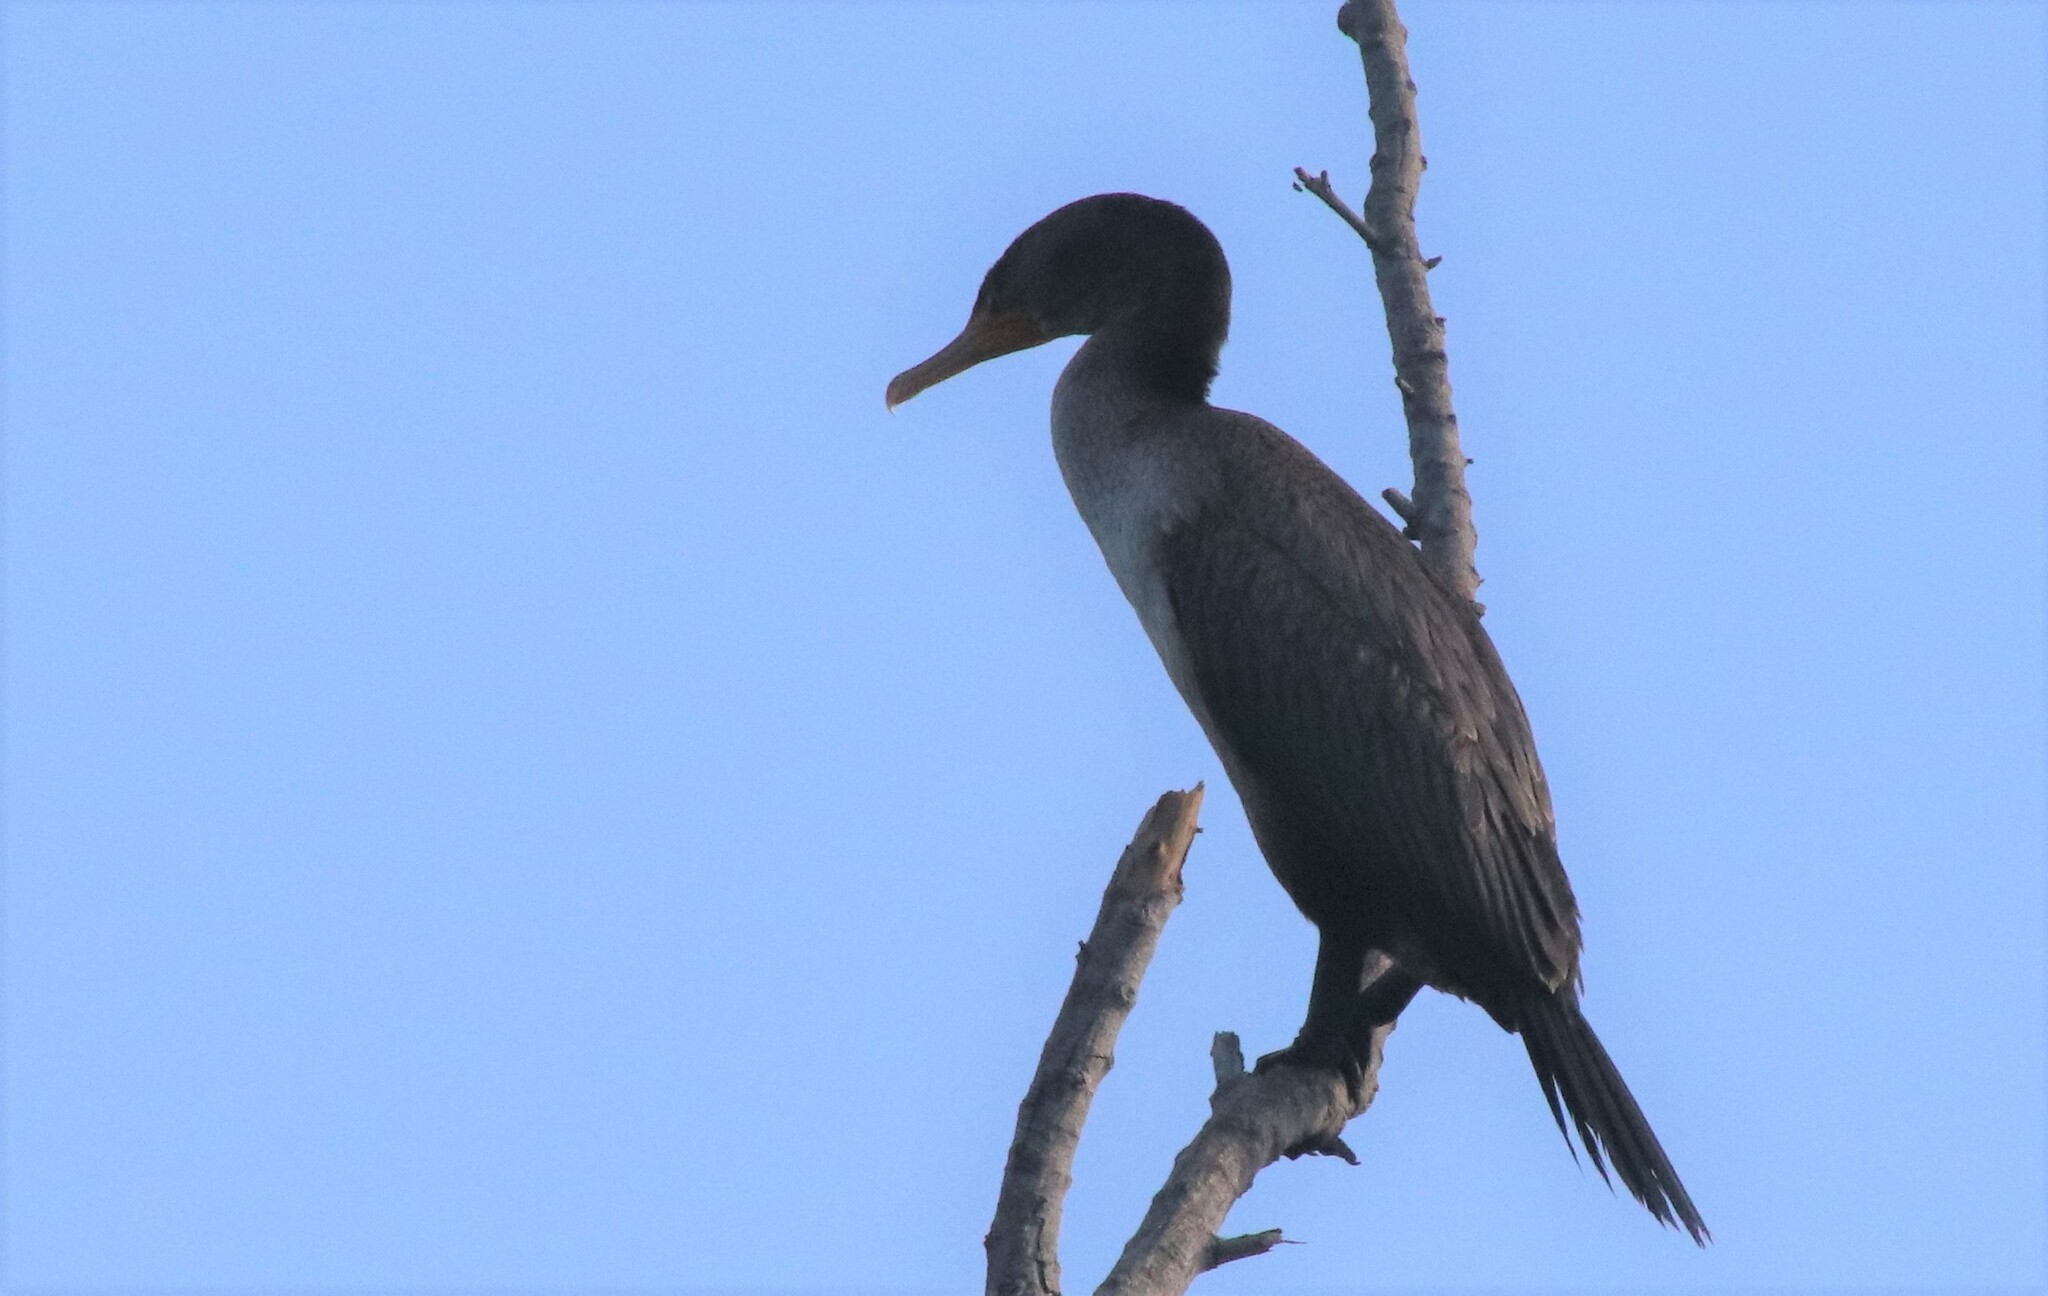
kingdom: Animalia
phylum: Chordata
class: Aves
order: Suliformes
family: Phalacrocoracidae
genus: Phalacrocorax
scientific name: Phalacrocorax auritus
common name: Double-crested cormorant
